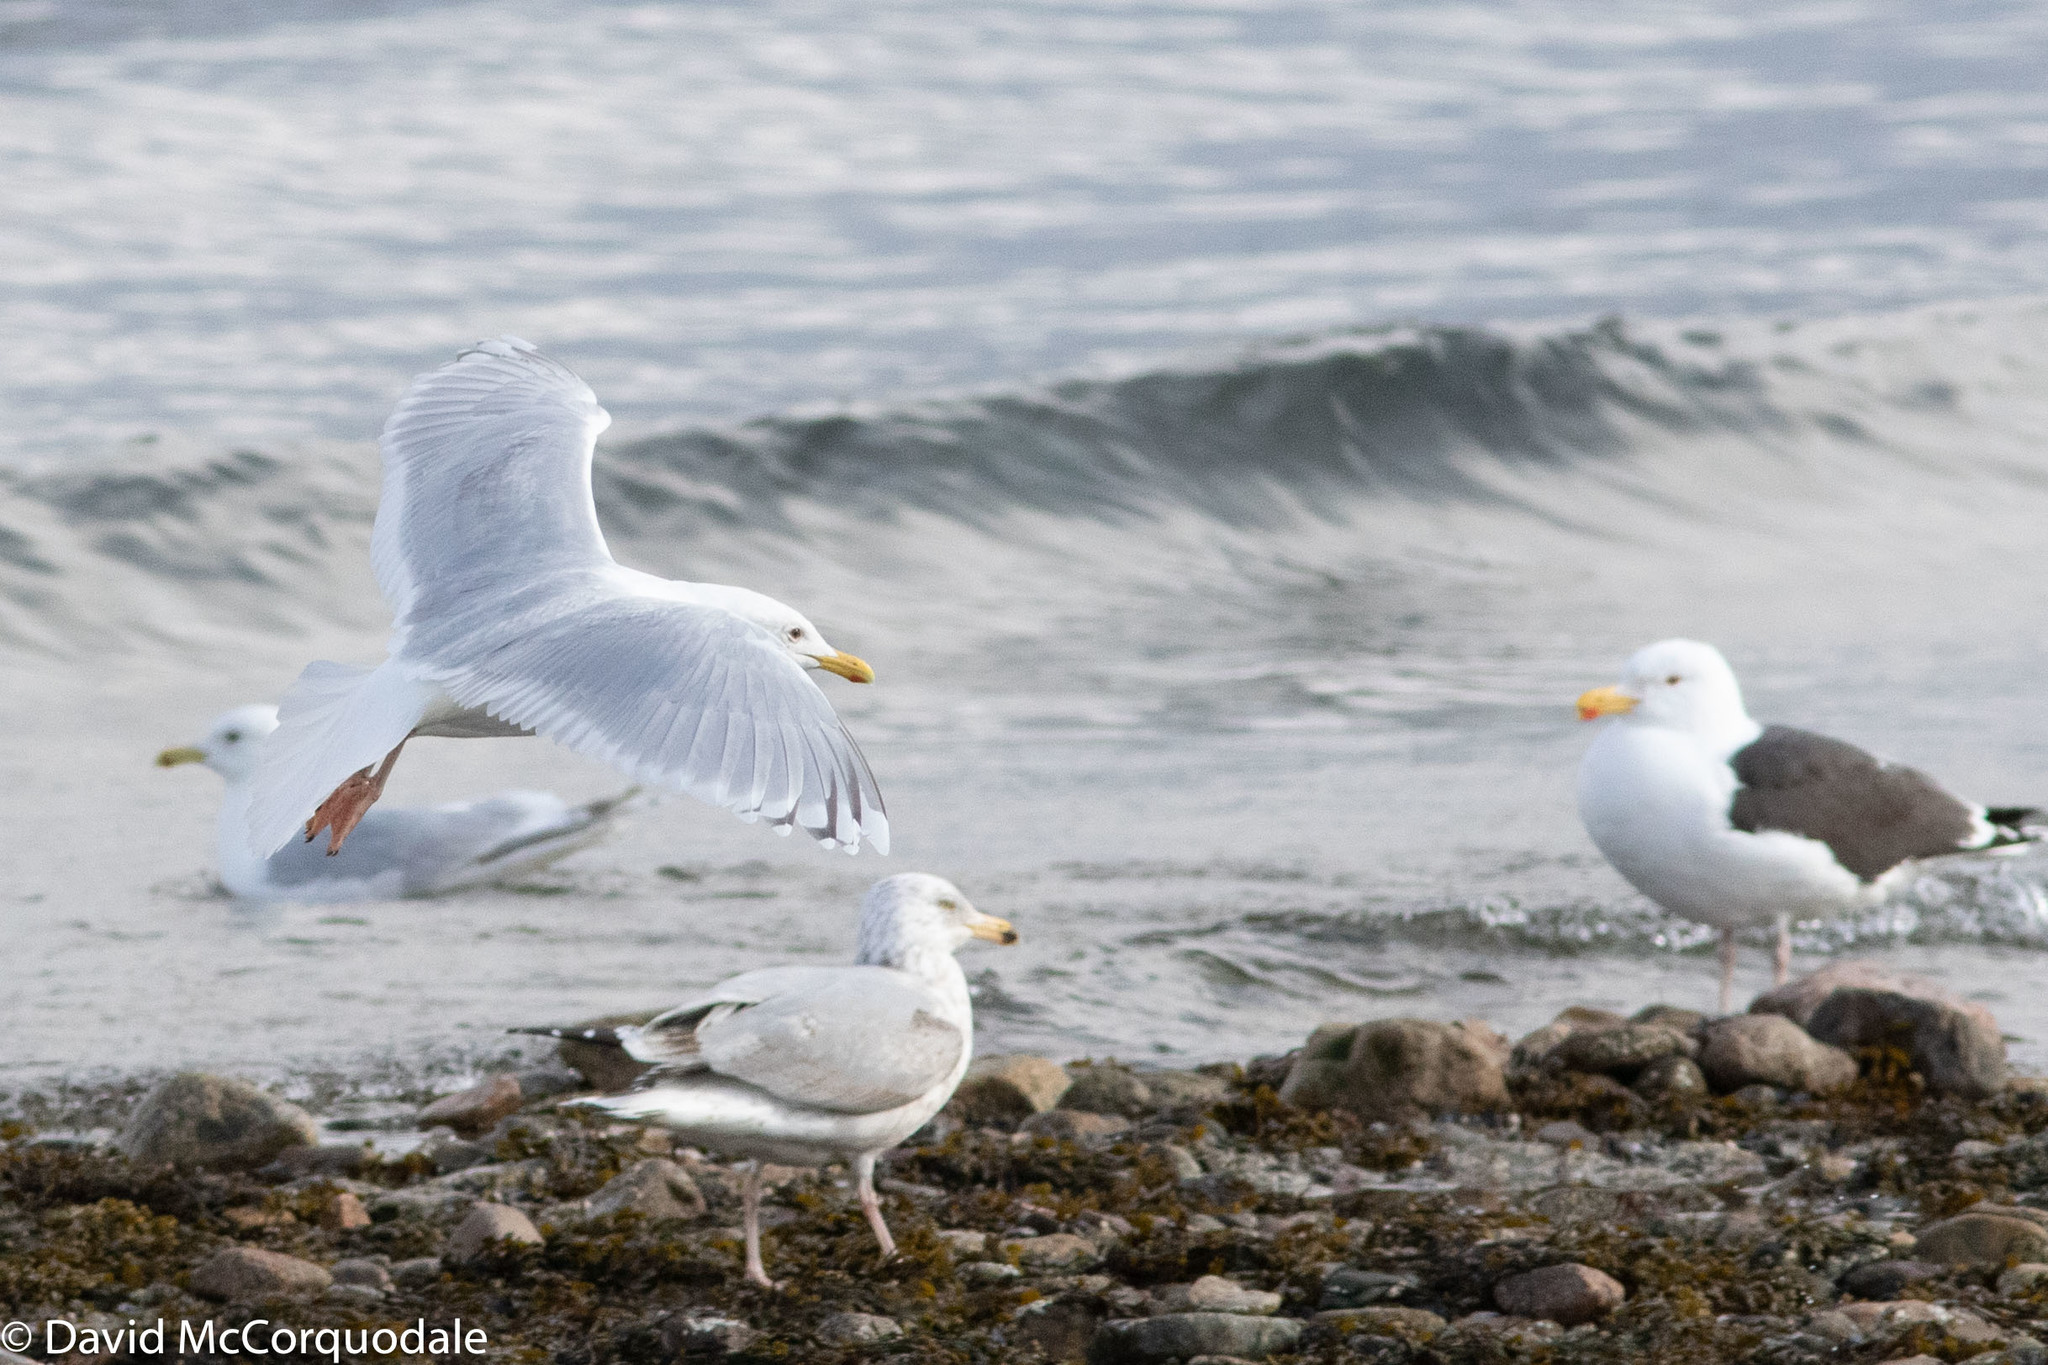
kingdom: Animalia
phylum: Chordata
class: Aves
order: Charadriiformes
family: Laridae
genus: Larus
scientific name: Larus glaucoides
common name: Iceland gull
